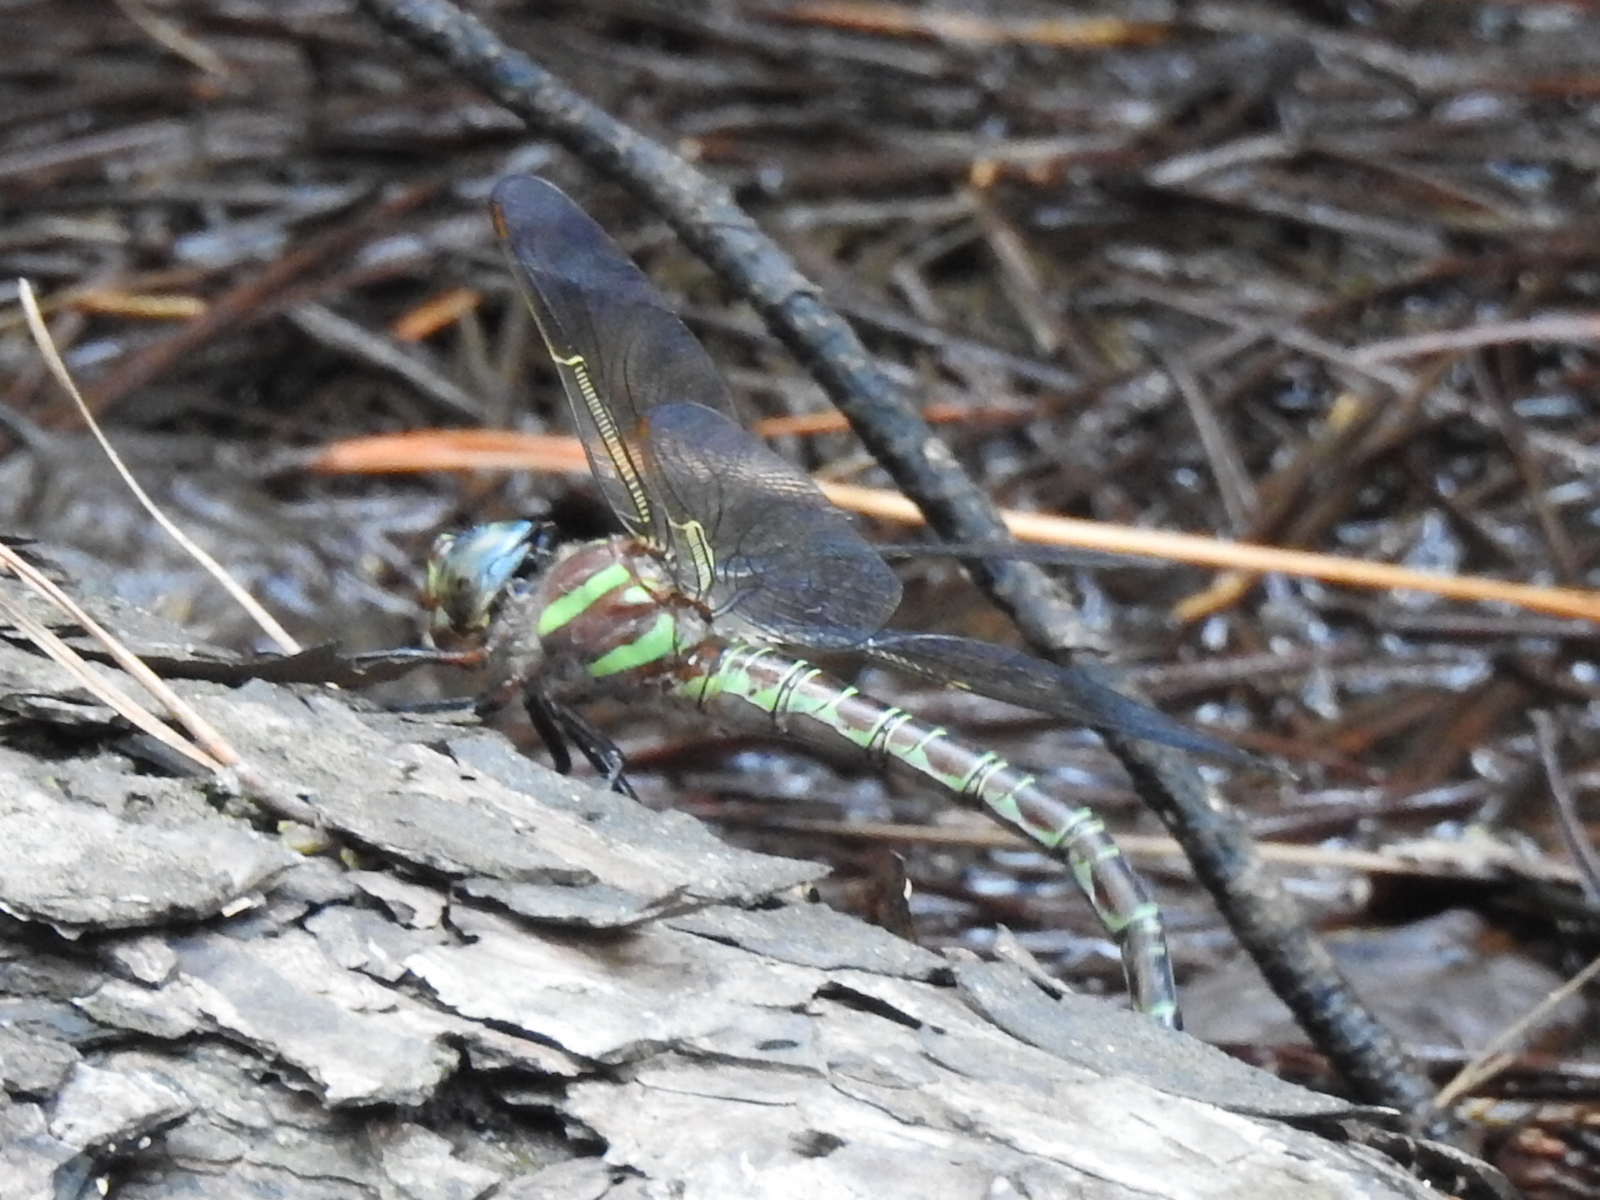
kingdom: Animalia
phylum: Arthropoda
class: Insecta
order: Odonata
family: Aeshnidae
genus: Epiaeschna
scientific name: Epiaeschna heros
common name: Swamp darner
